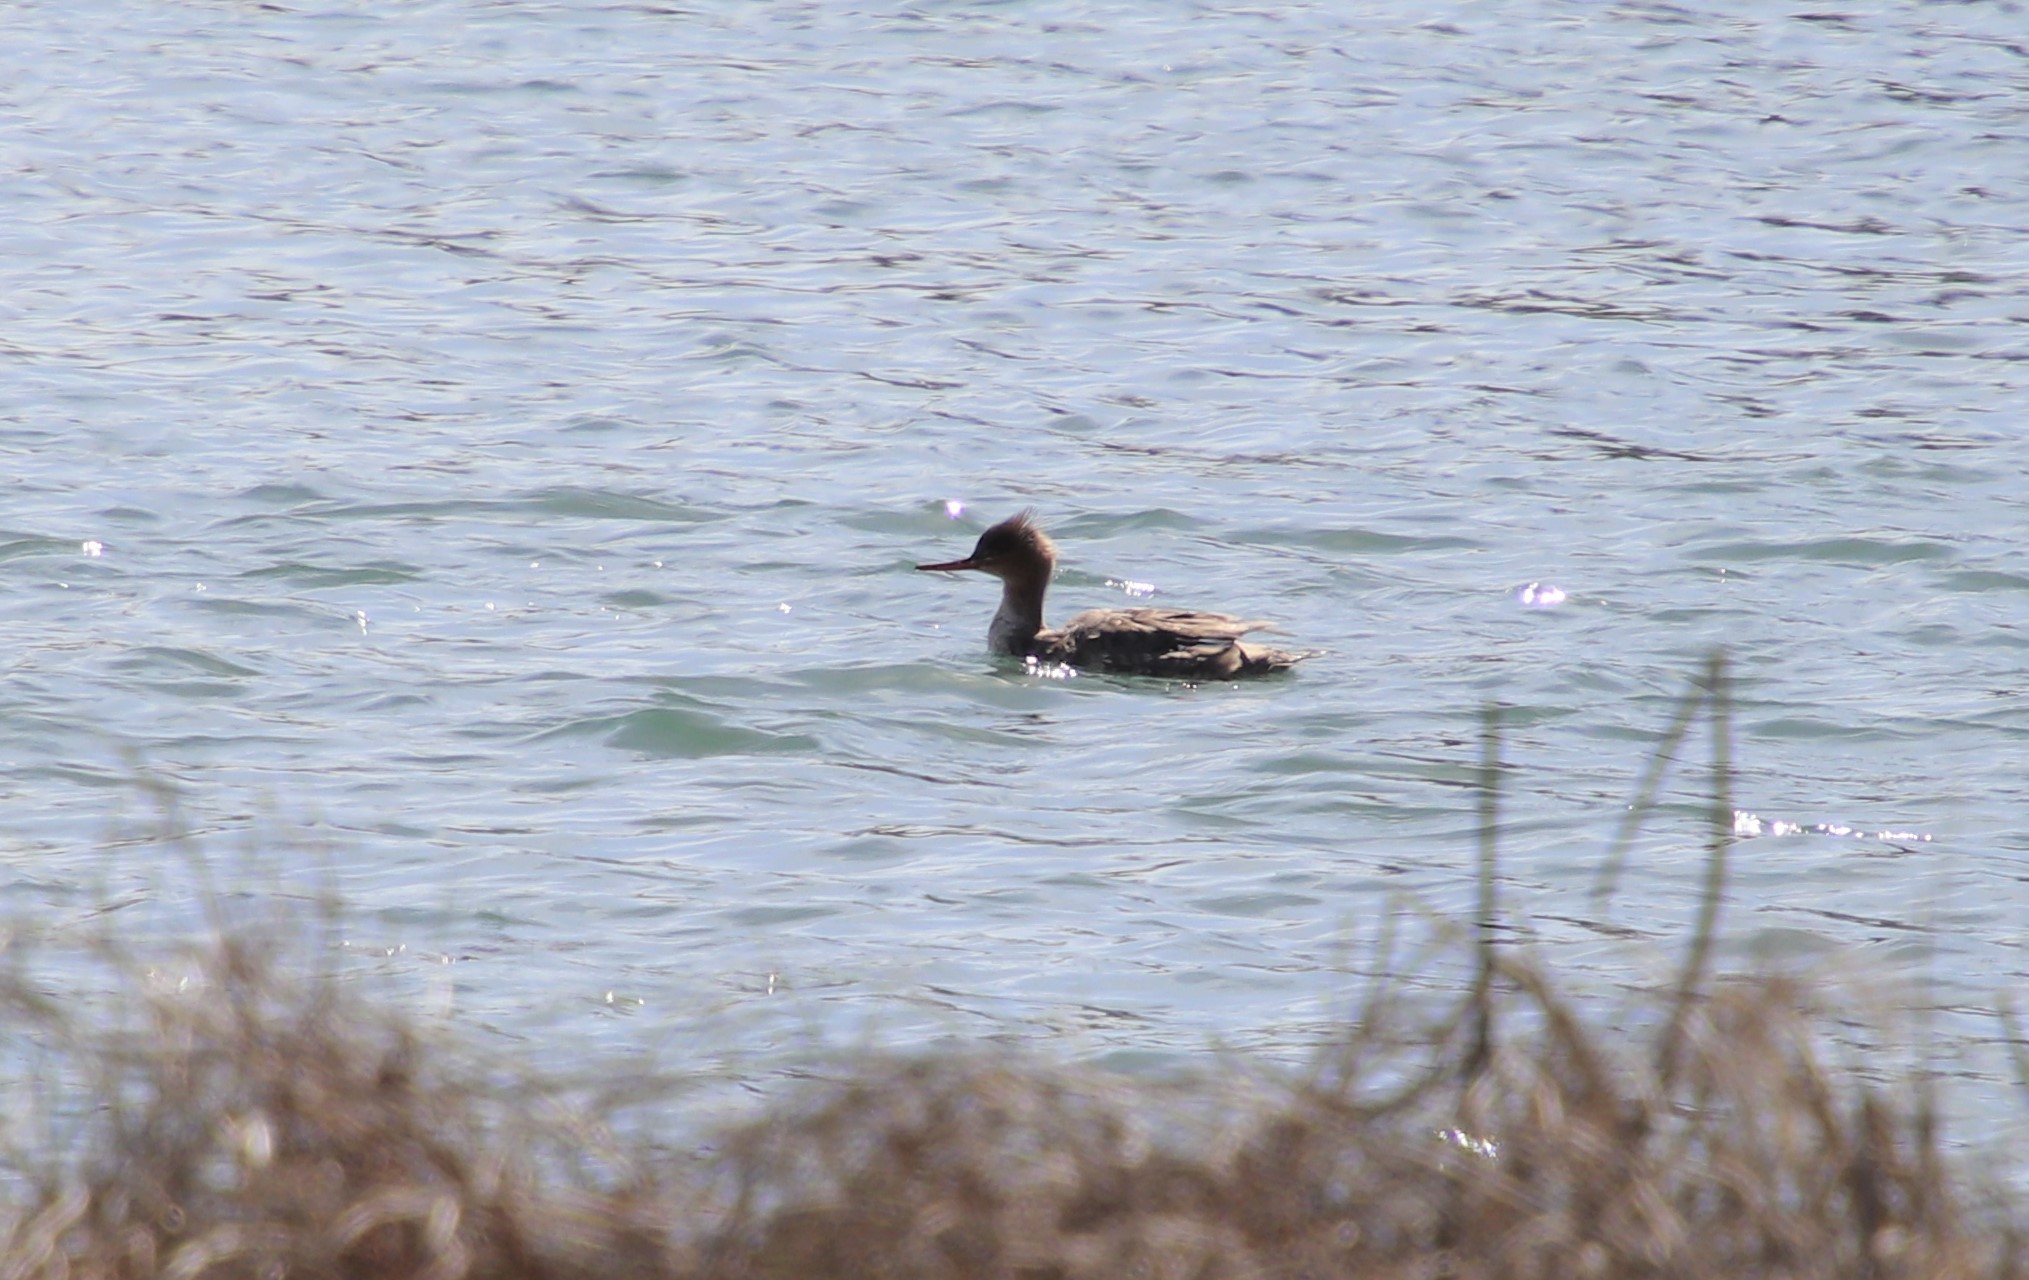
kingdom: Animalia
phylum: Chordata
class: Aves
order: Anseriformes
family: Anatidae
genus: Mergus
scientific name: Mergus serrator
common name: Red-breasted merganser
